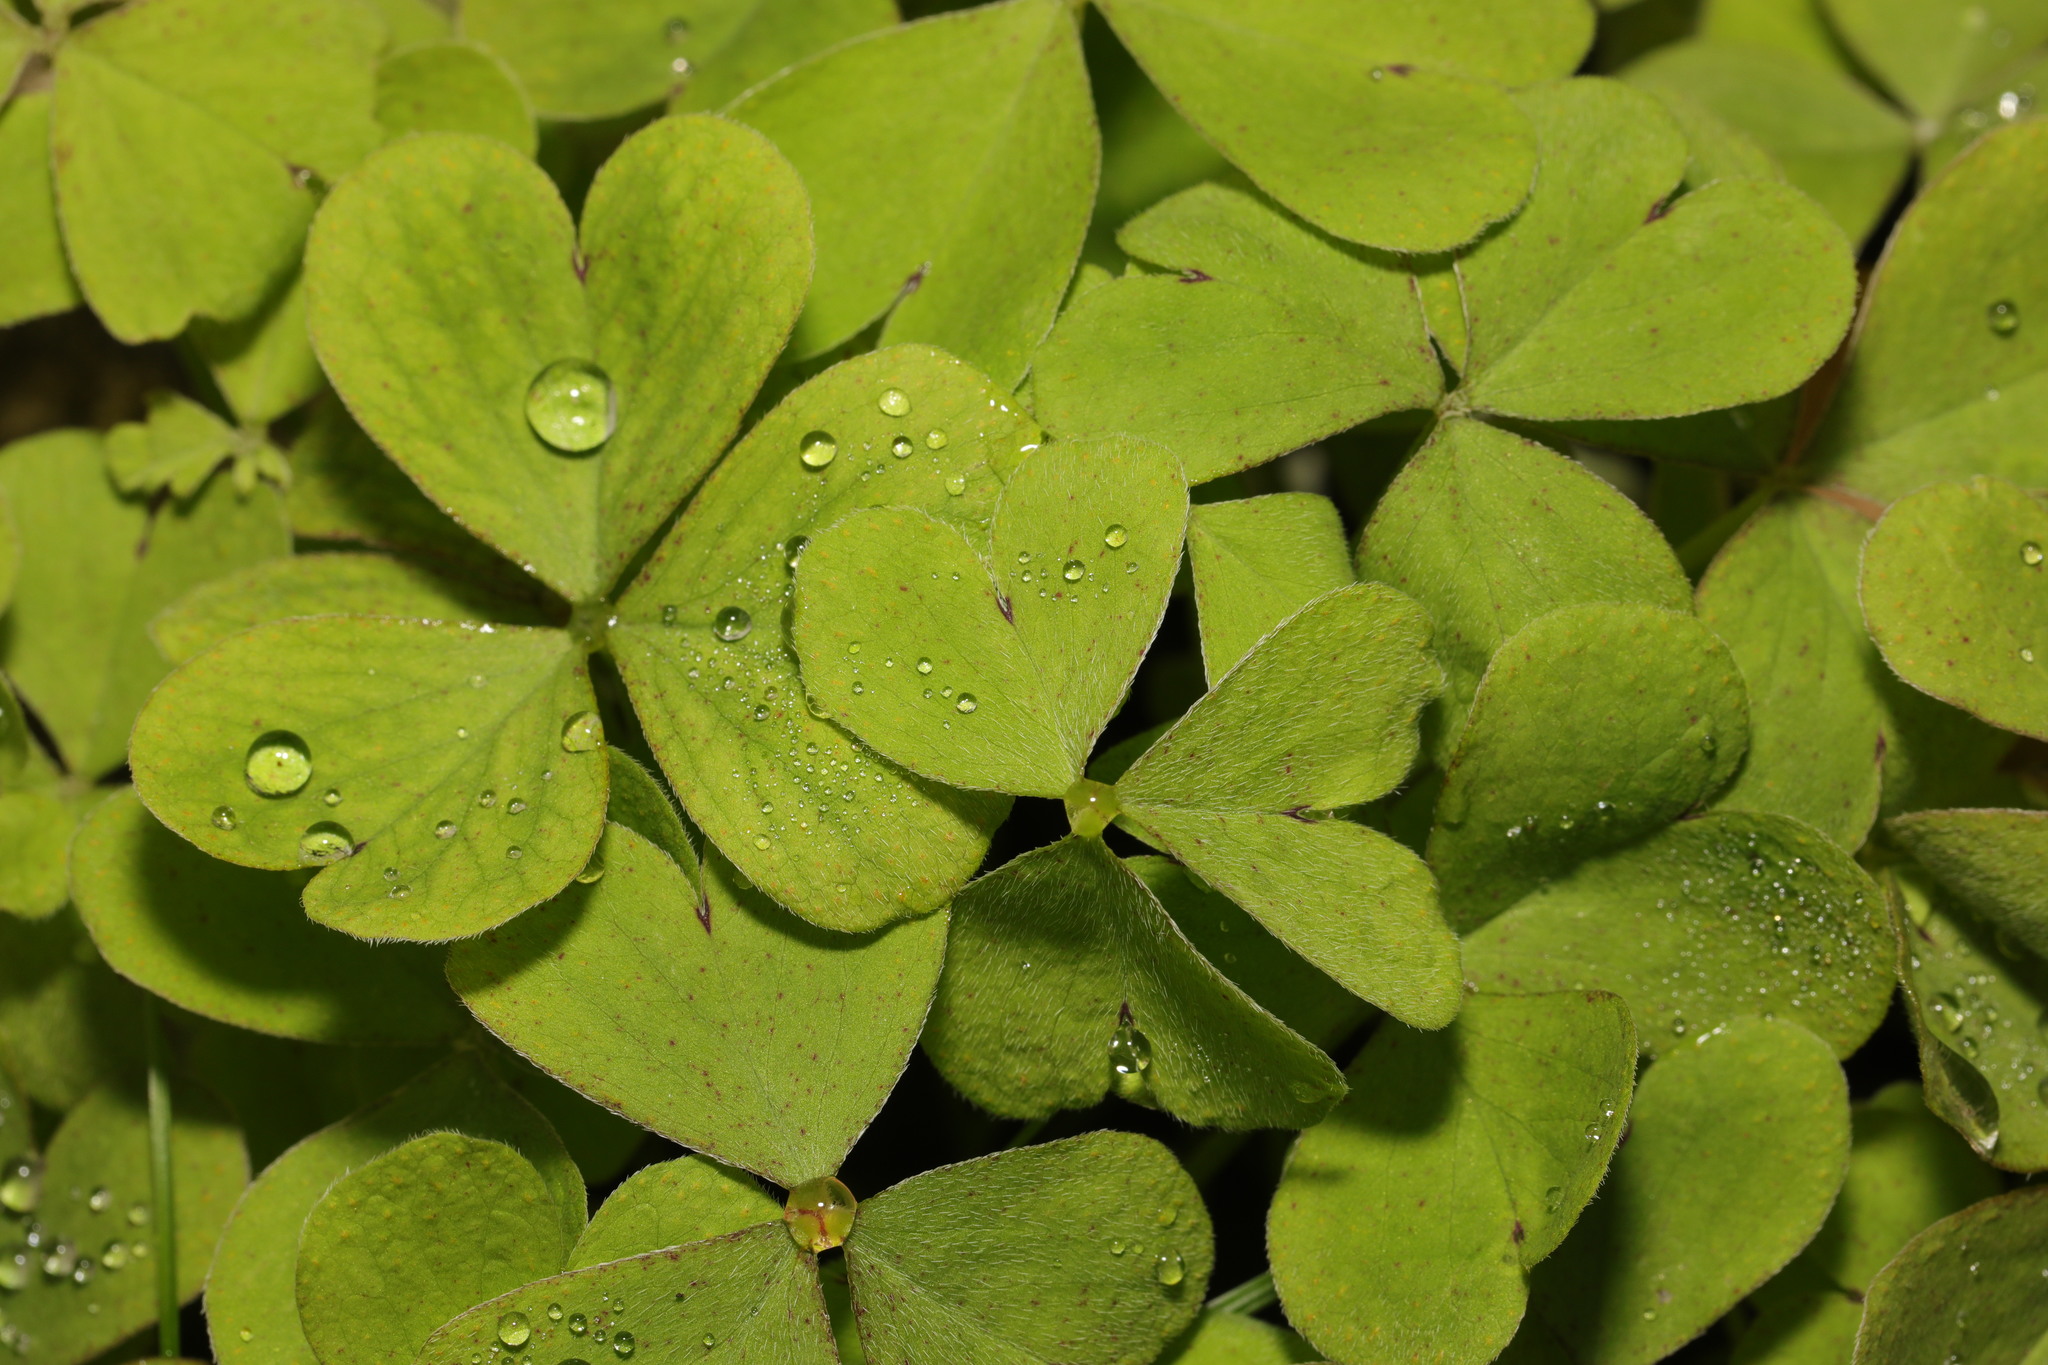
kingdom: Plantae
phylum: Tracheophyta
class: Magnoliopsida
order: Oxalidales
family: Oxalidaceae
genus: Oxalis
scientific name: Oxalis articulata
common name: Pink-sorrel
